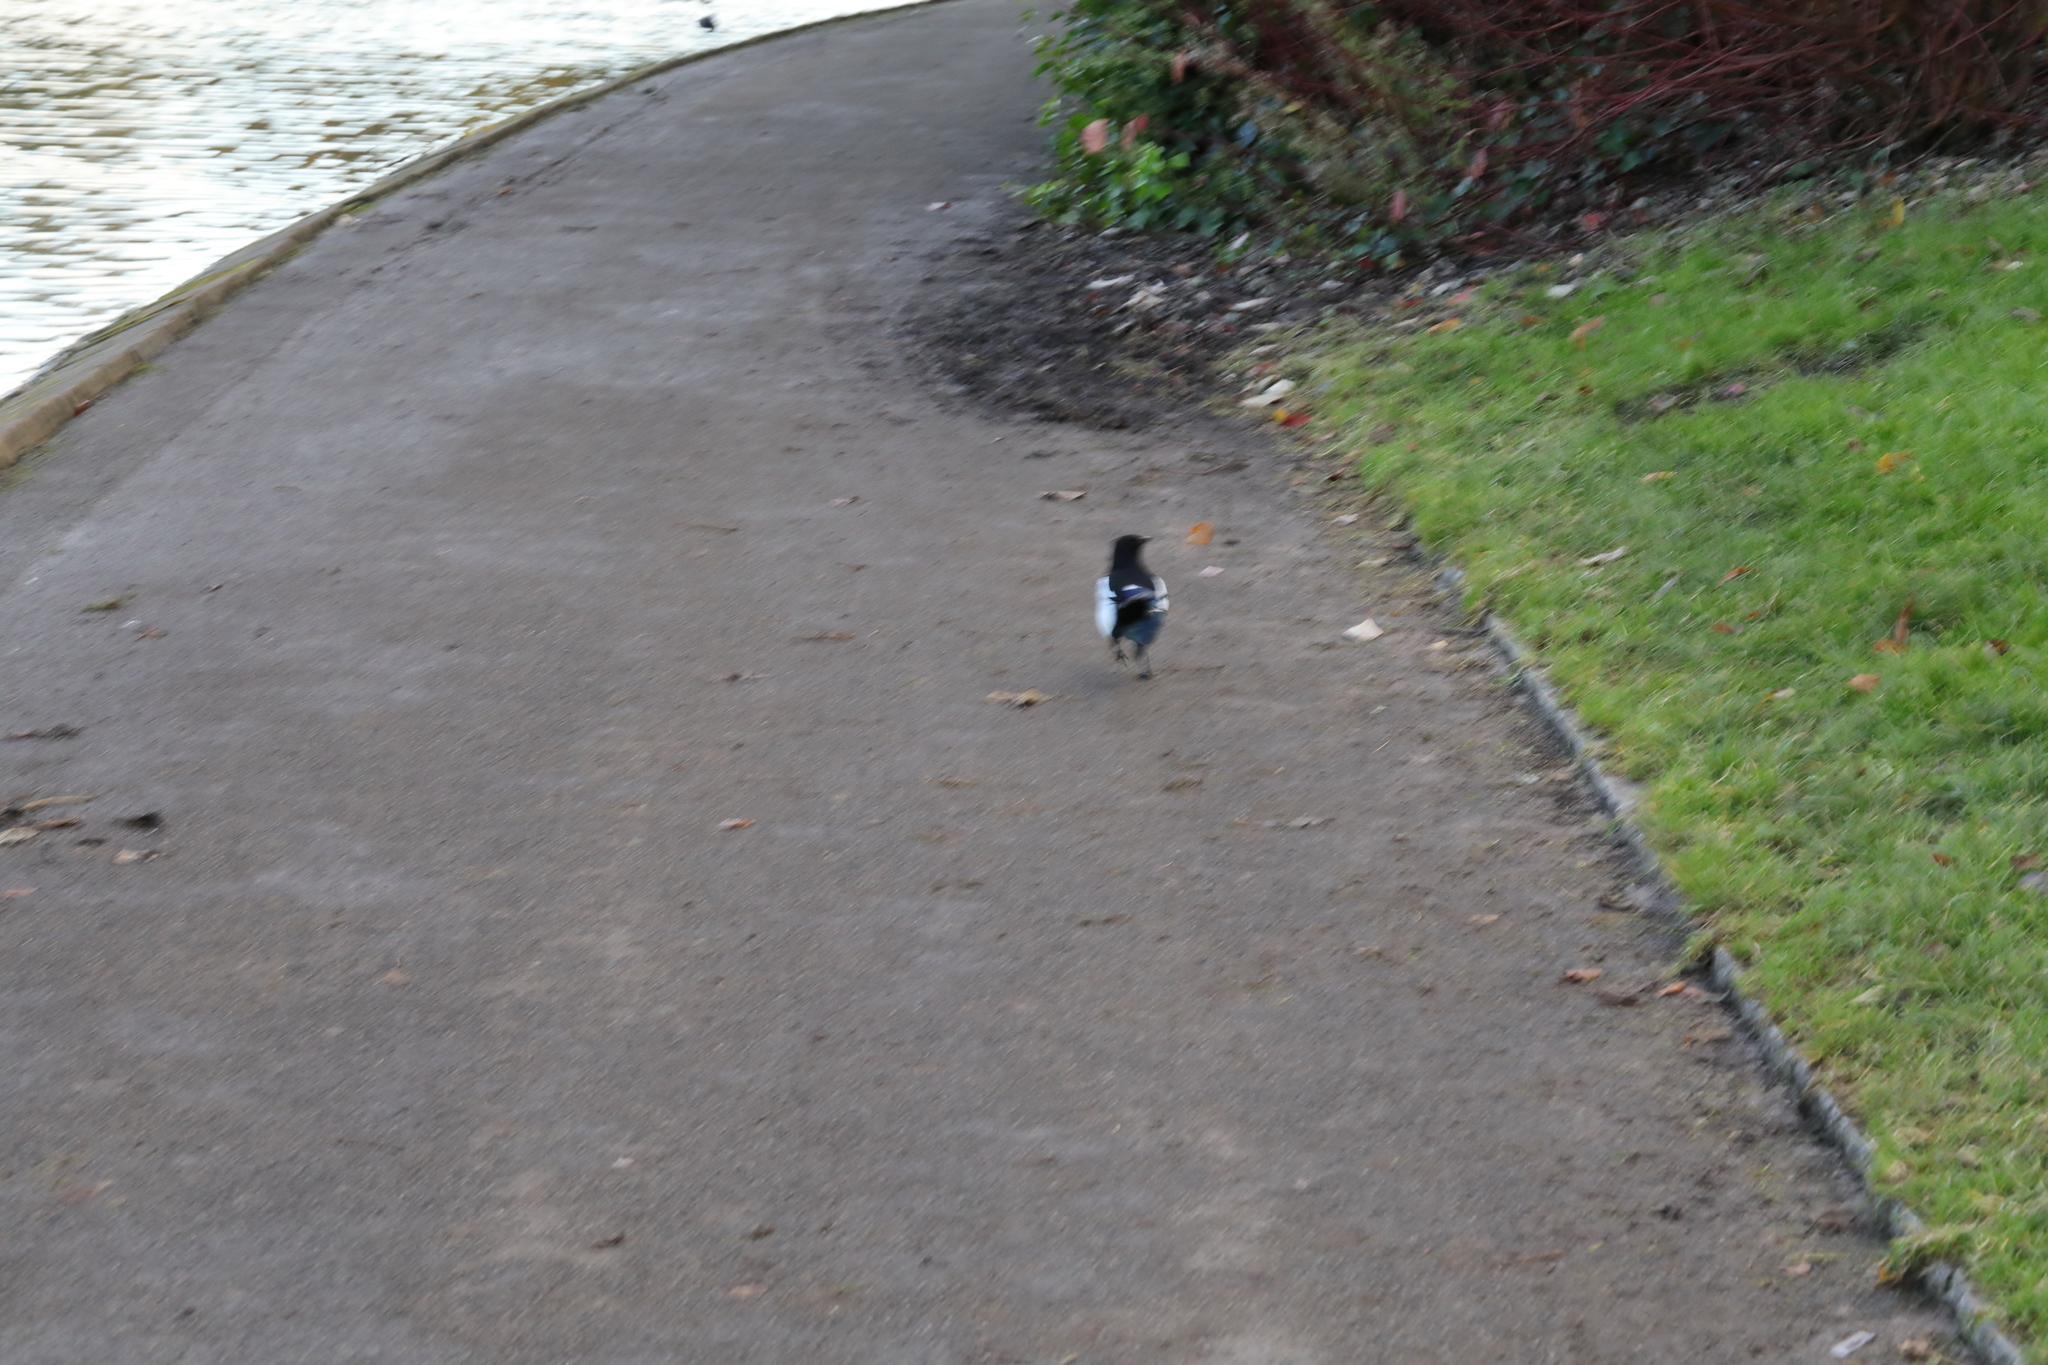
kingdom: Animalia
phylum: Chordata
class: Aves
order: Passeriformes
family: Corvidae
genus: Pica
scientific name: Pica pica
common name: Eurasian magpie
